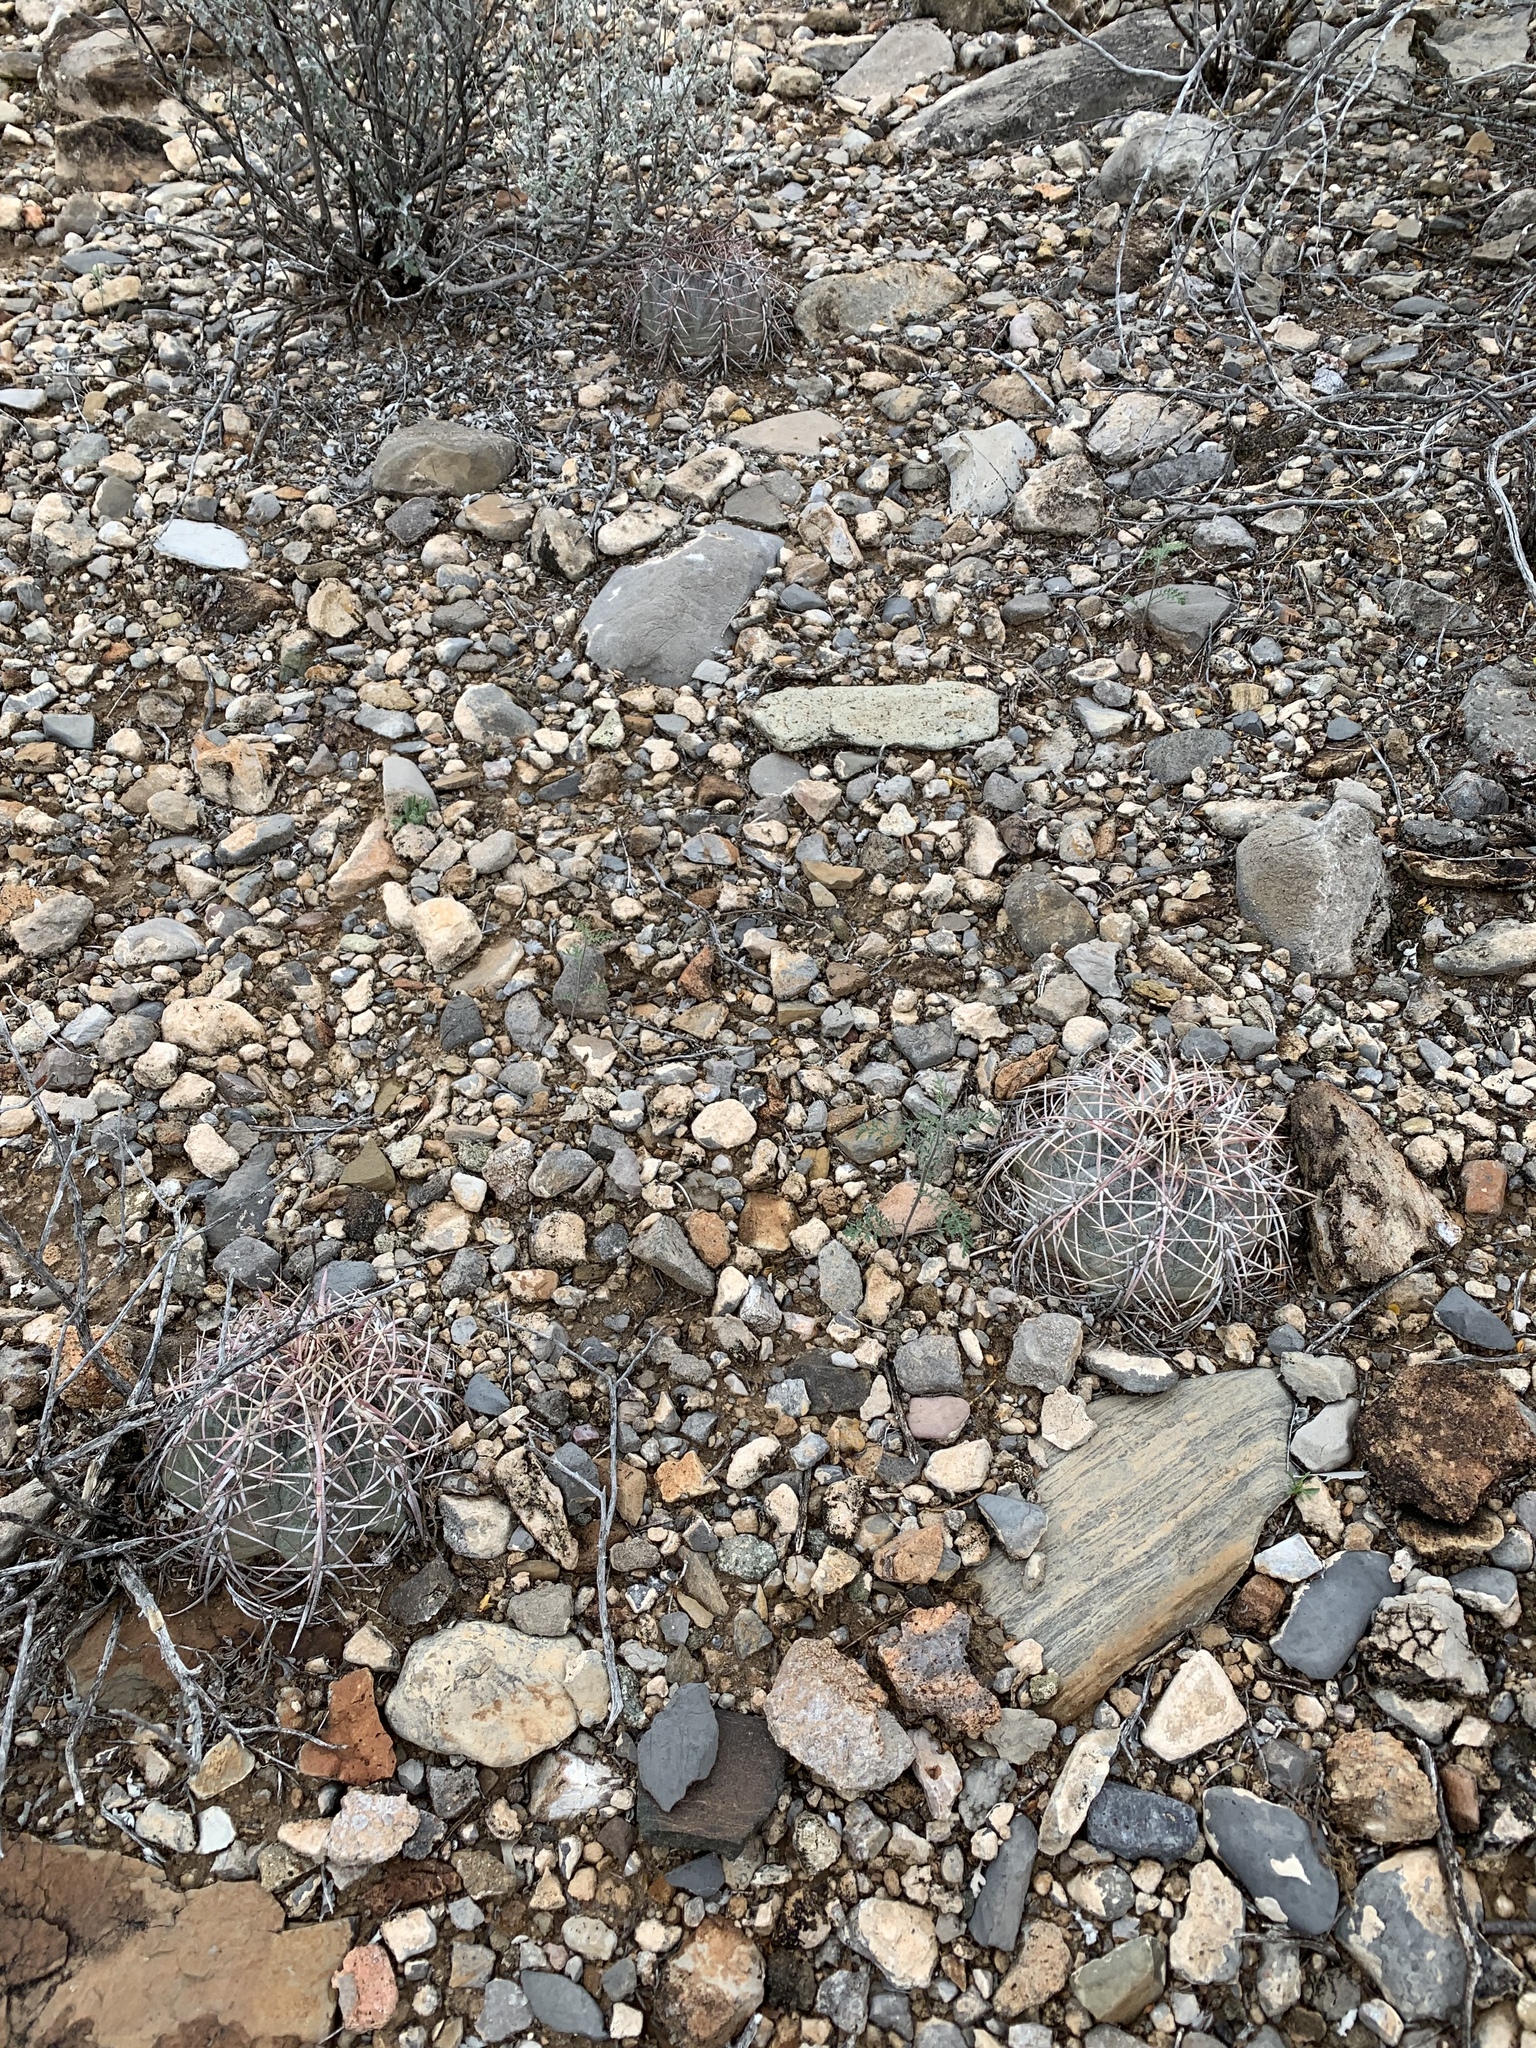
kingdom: Plantae
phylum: Tracheophyta
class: Magnoliopsida
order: Caryophyllales
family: Cactaceae
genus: Echinocactus
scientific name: Echinocactus horizonthalonius
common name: Devilshead
